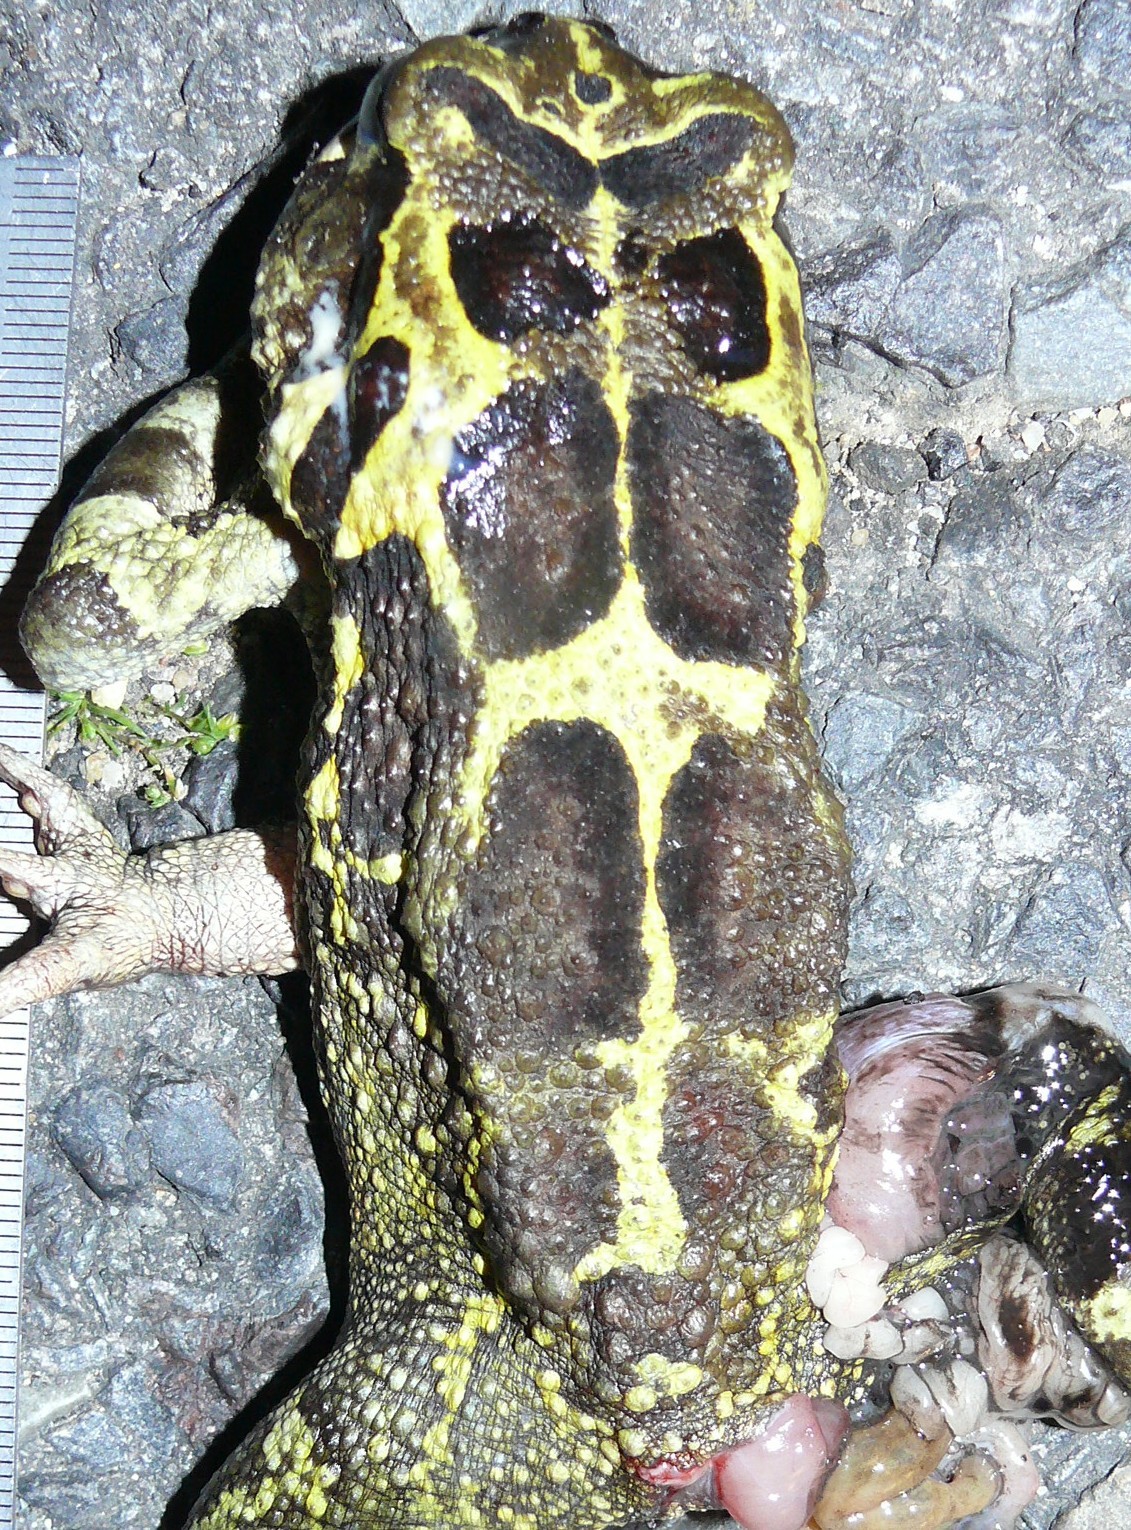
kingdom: Animalia
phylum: Chordata
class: Amphibia
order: Anura
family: Bufonidae
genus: Sclerophrys
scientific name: Sclerophrys pantherina
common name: Panther toad
